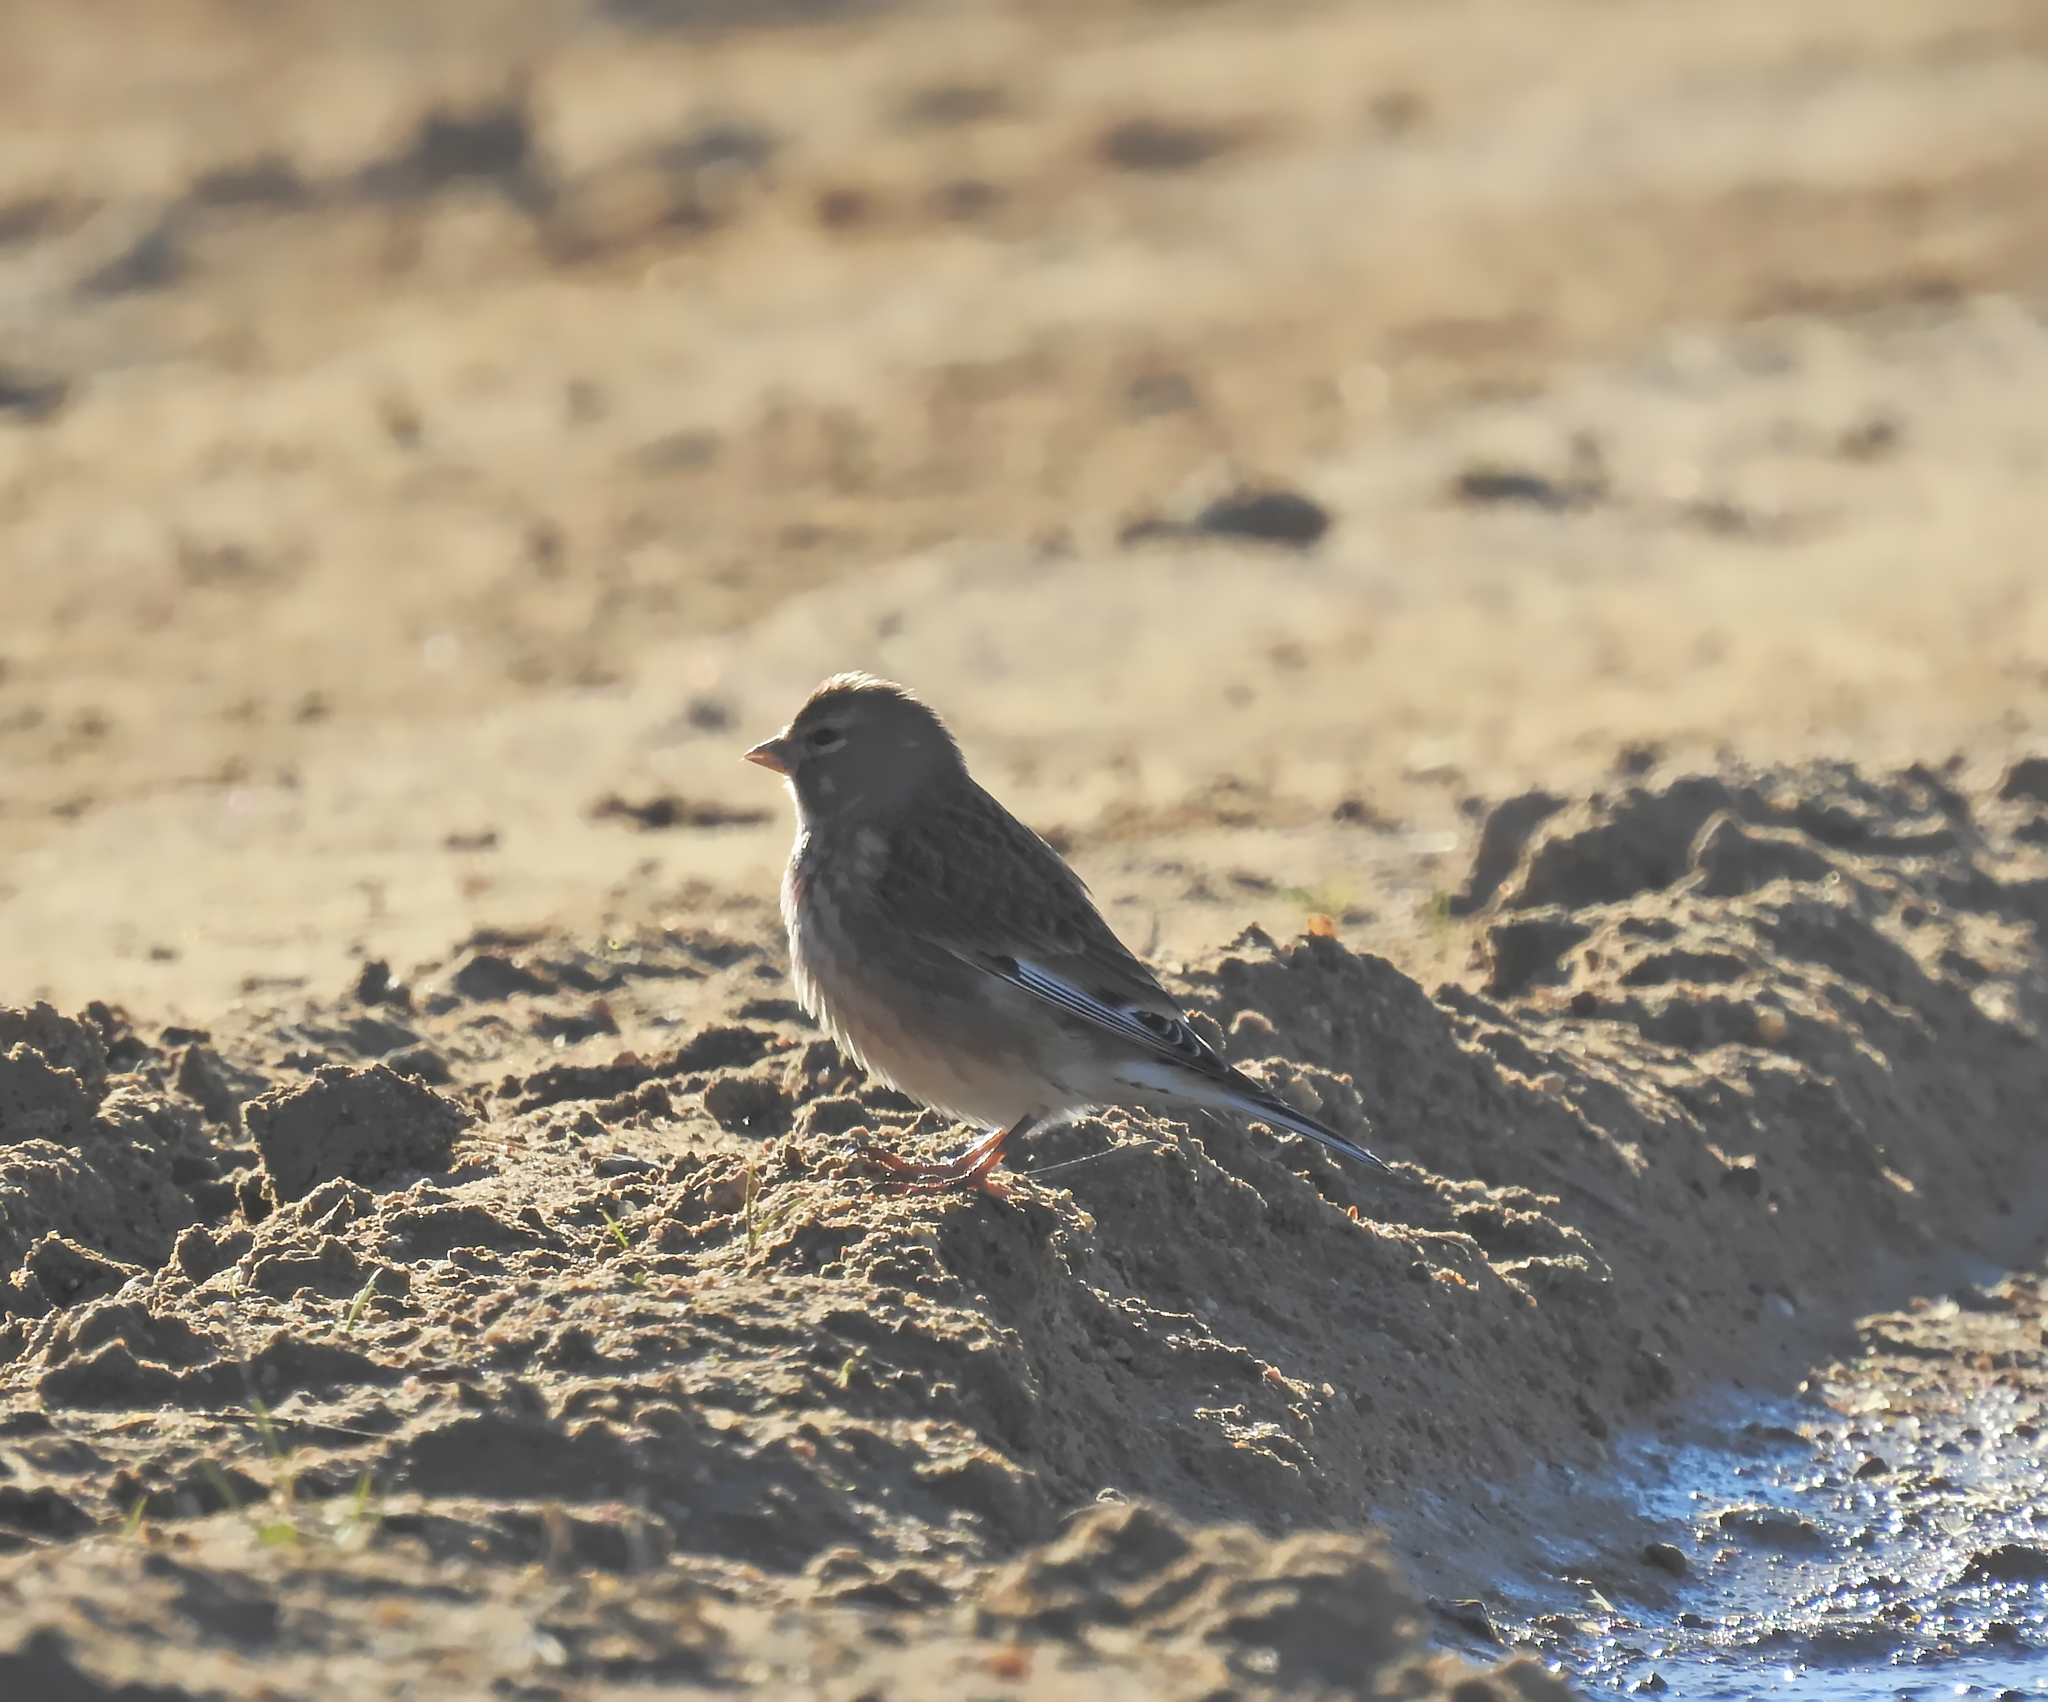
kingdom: Animalia
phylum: Chordata
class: Aves
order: Passeriformes
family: Fringillidae
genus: Linaria
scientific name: Linaria cannabina
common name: Common linnet
